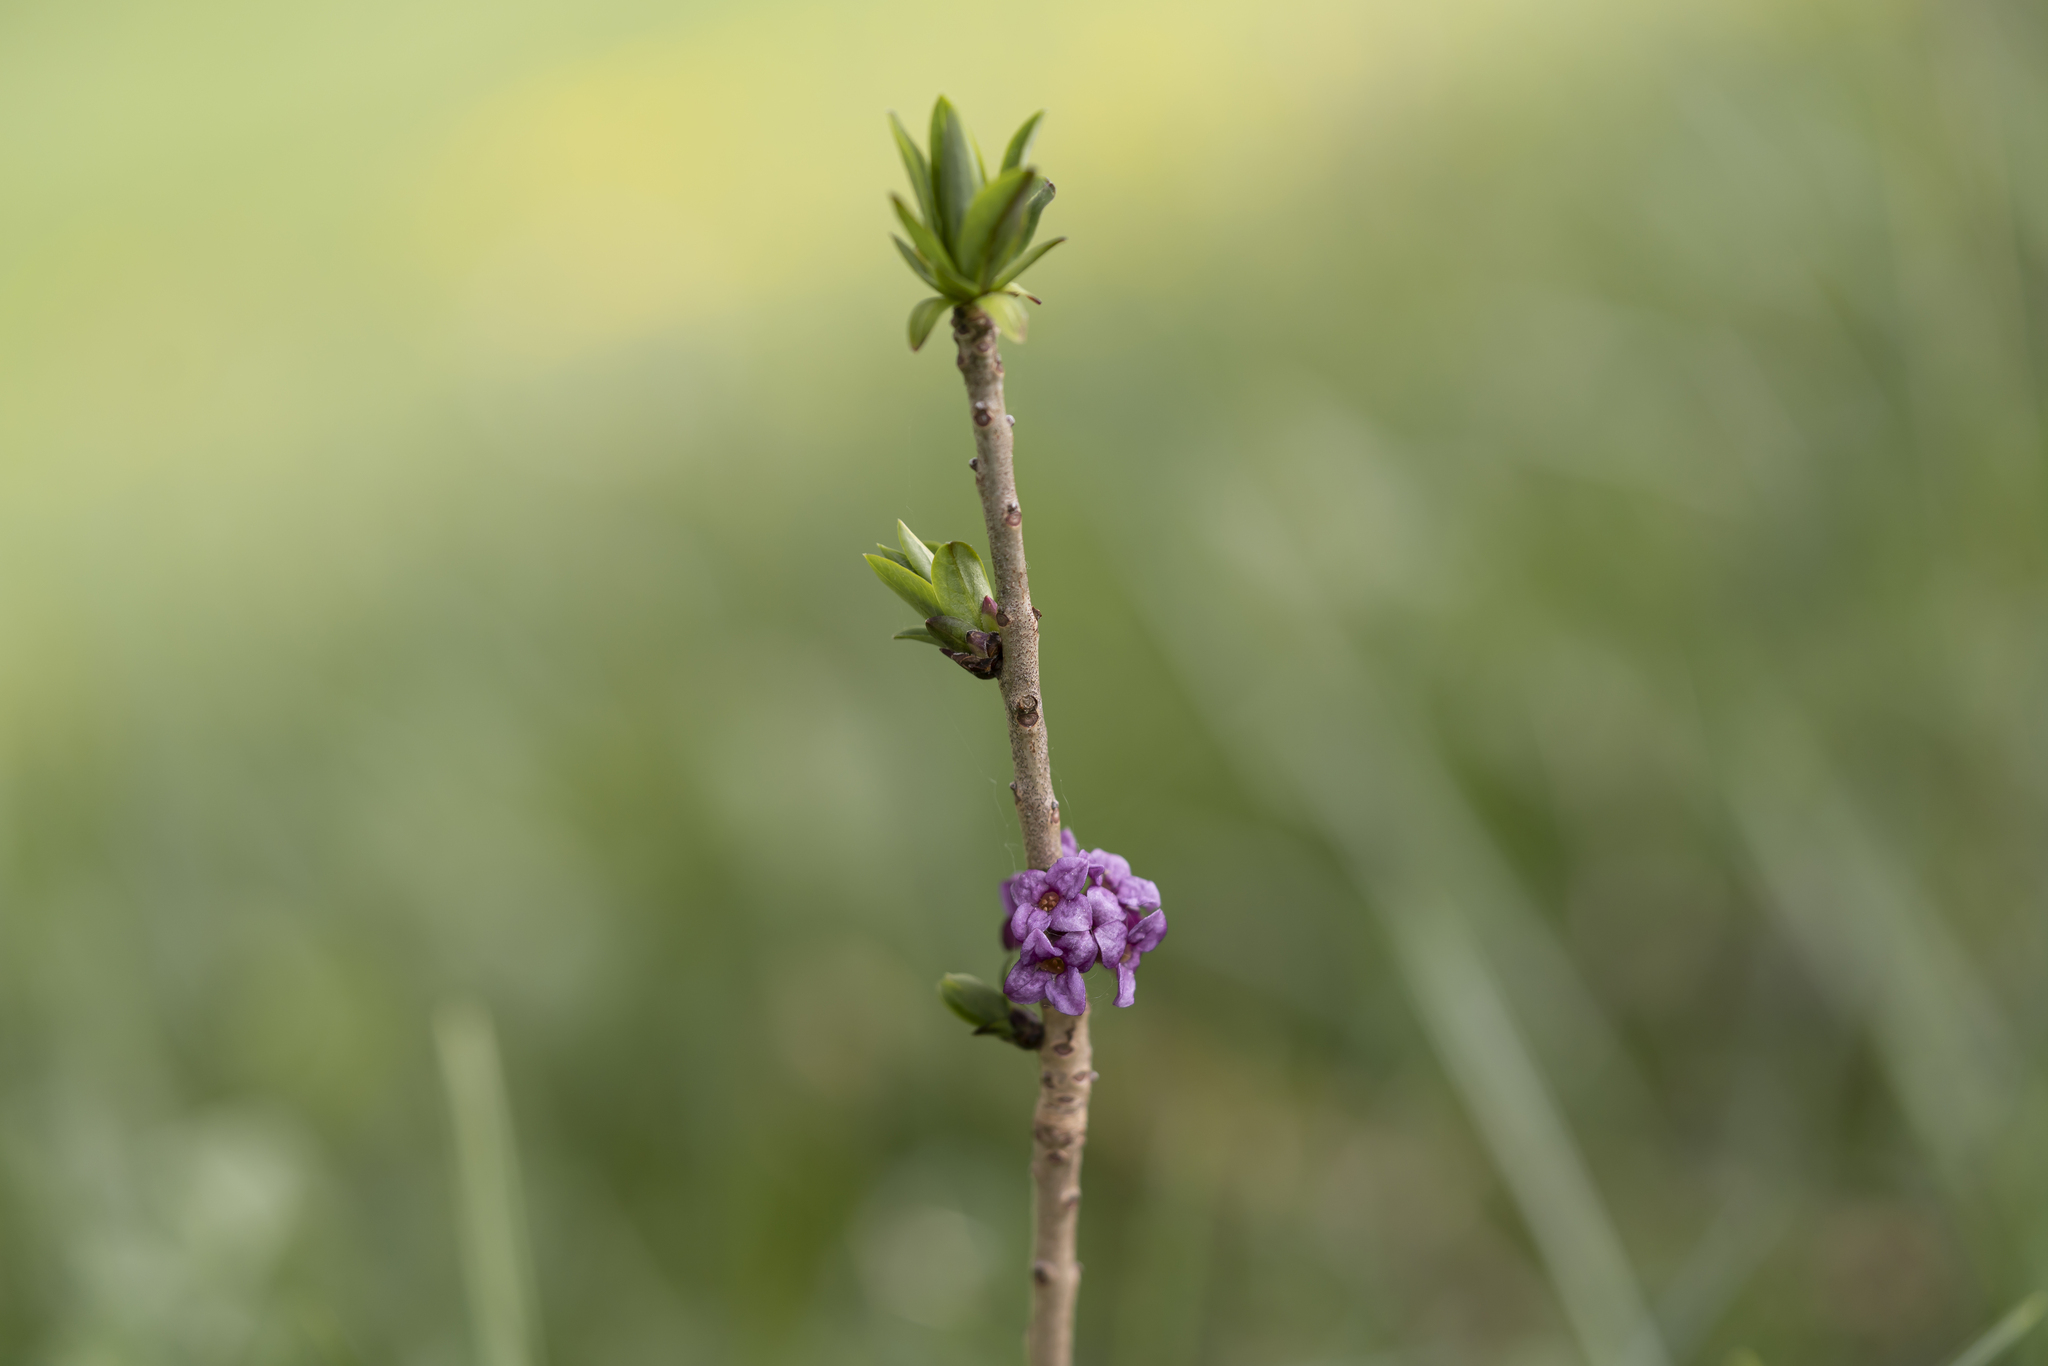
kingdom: Plantae
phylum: Tracheophyta
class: Magnoliopsida
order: Malvales
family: Thymelaeaceae
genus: Daphne
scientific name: Daphne mezereum
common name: Mezereon
